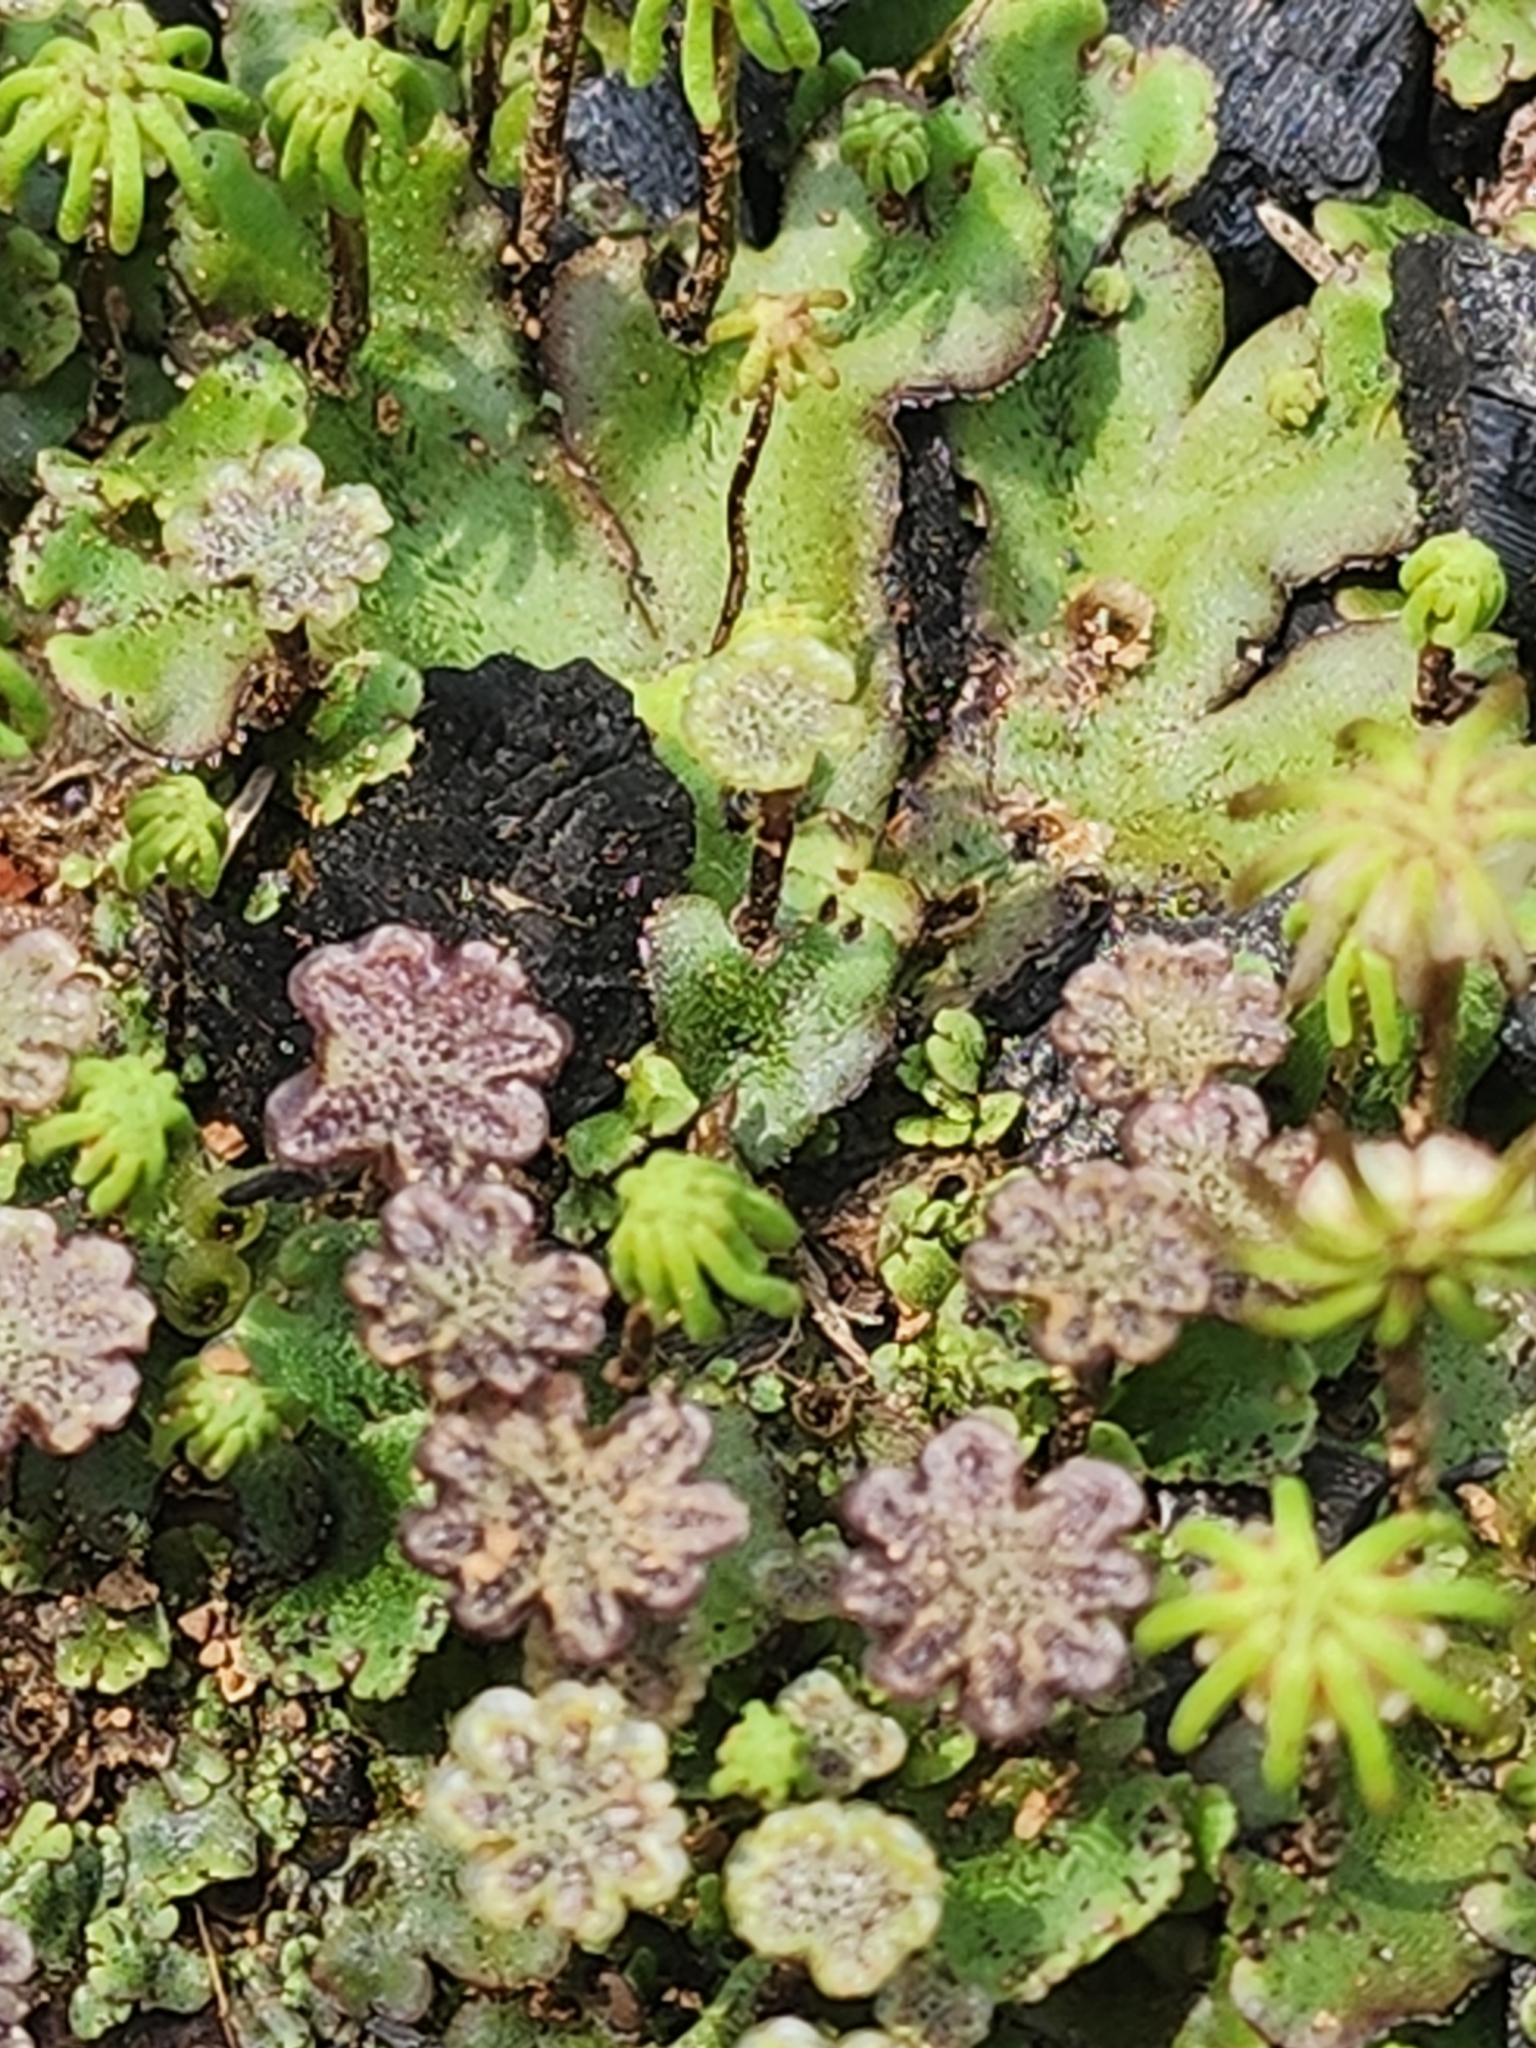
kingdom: Plantae
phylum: Marchantiophyta
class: Marchantiopsida
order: Marchantiales
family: Marchantiaceae
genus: Marchantia
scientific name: Marchantia polymorpha
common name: Common liverwort
